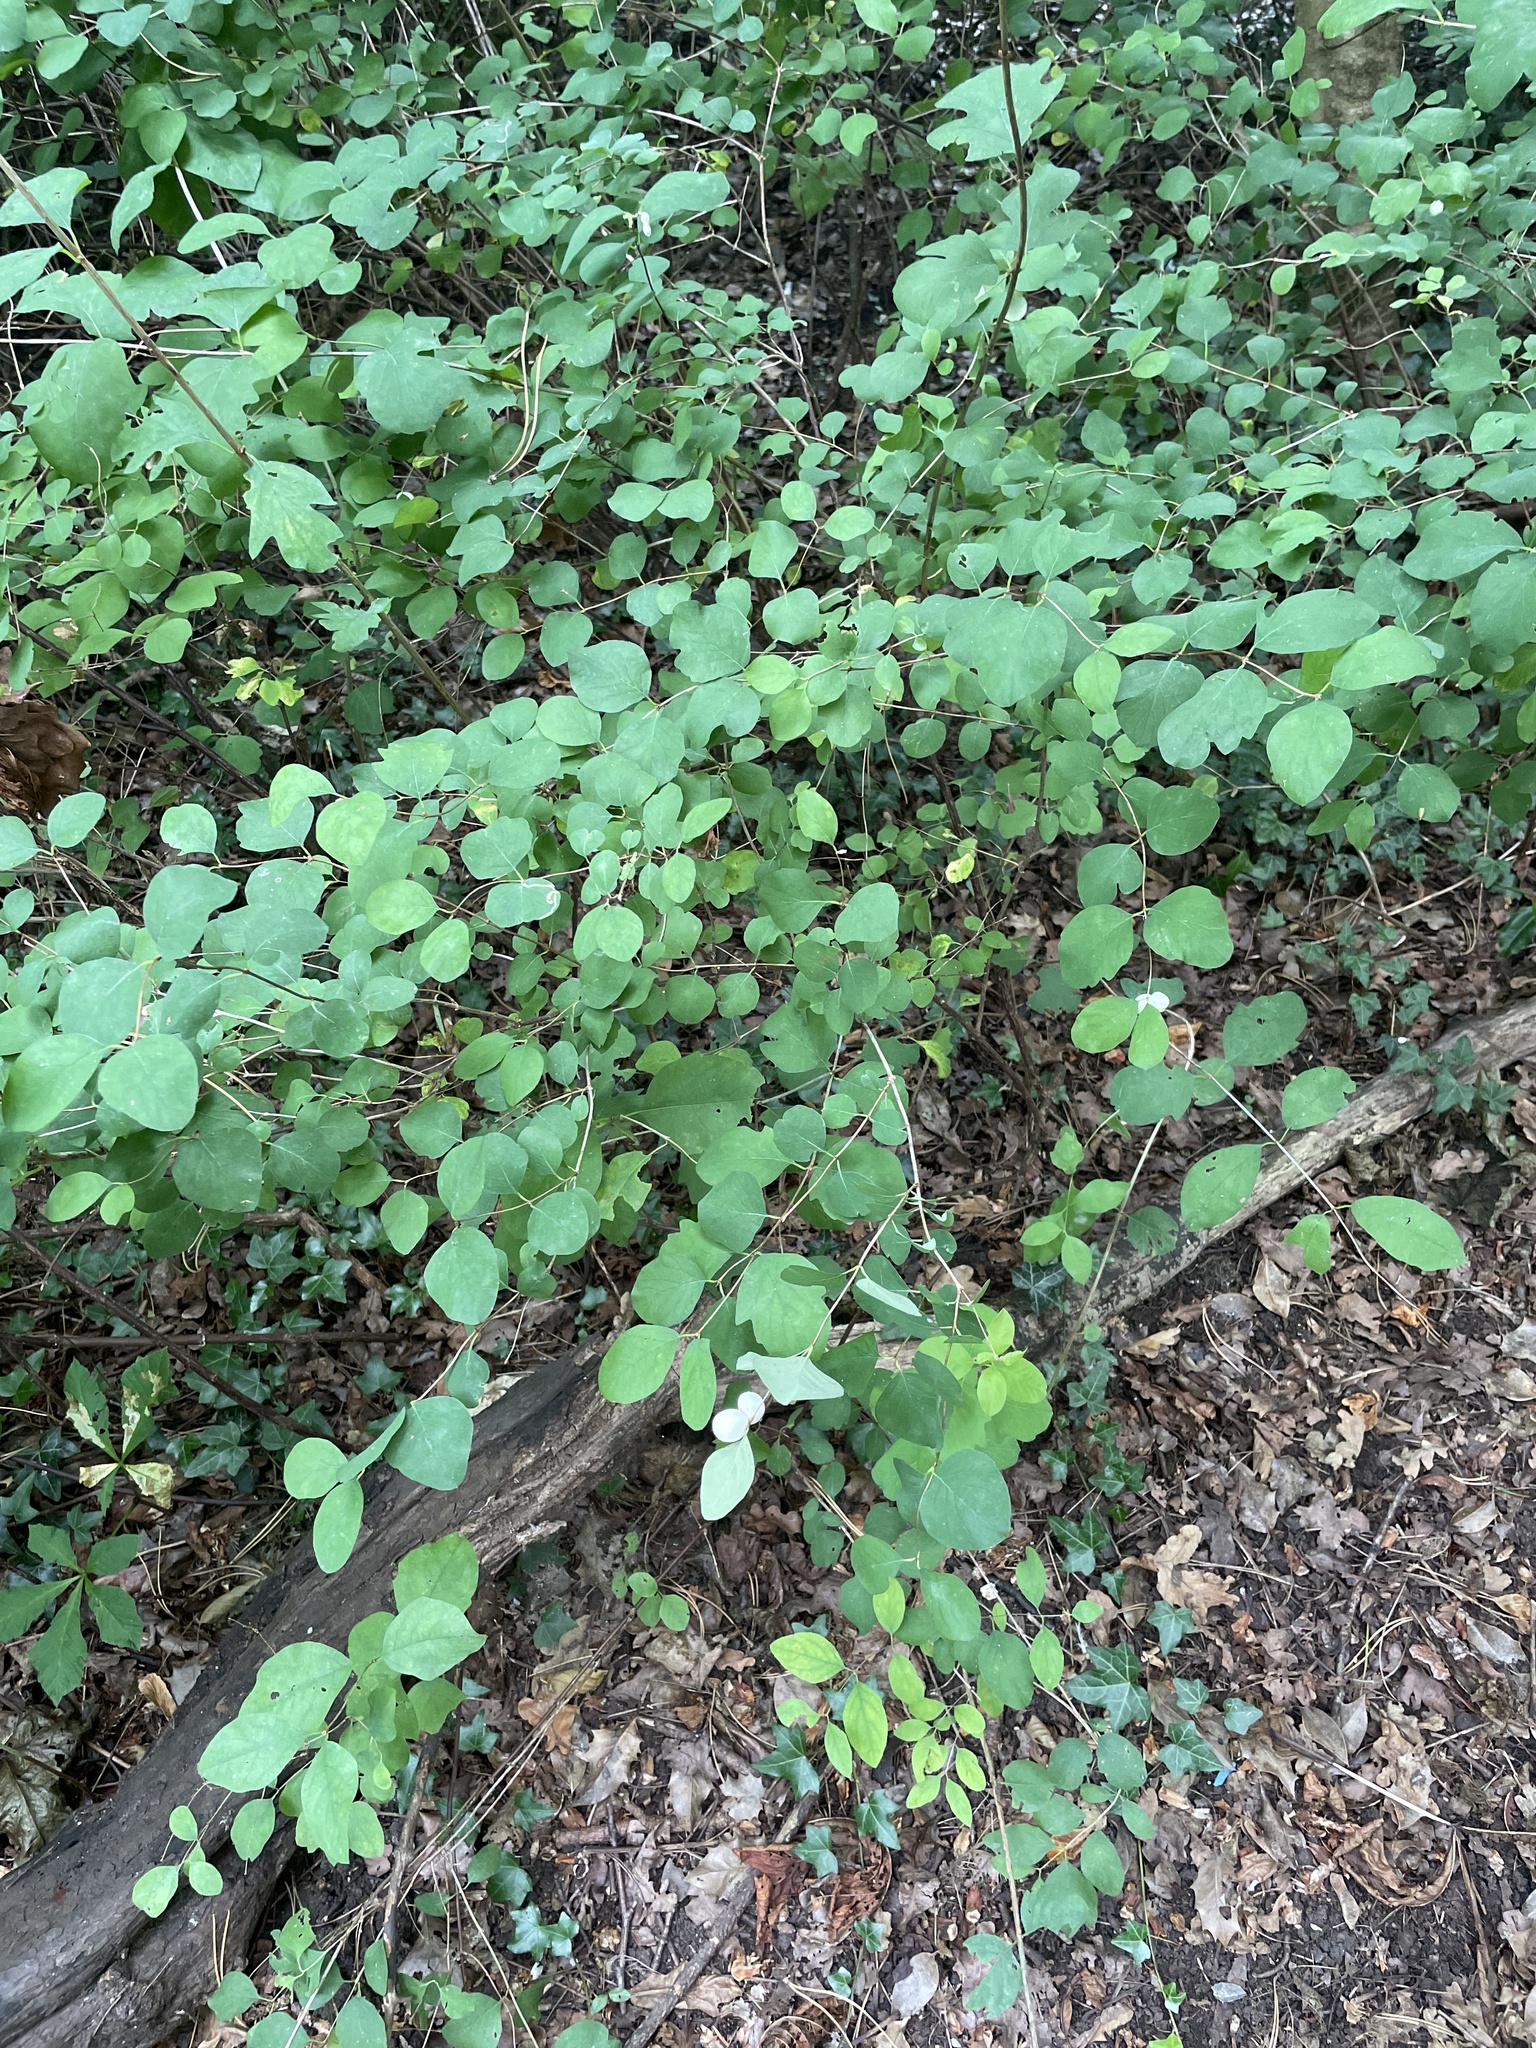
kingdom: Plantae
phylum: Tracheophyta
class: Magnoliopsida
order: Dipsacales
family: Caprifoliaceae
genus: Symphoricarpos
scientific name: Symphoricarpos albus
